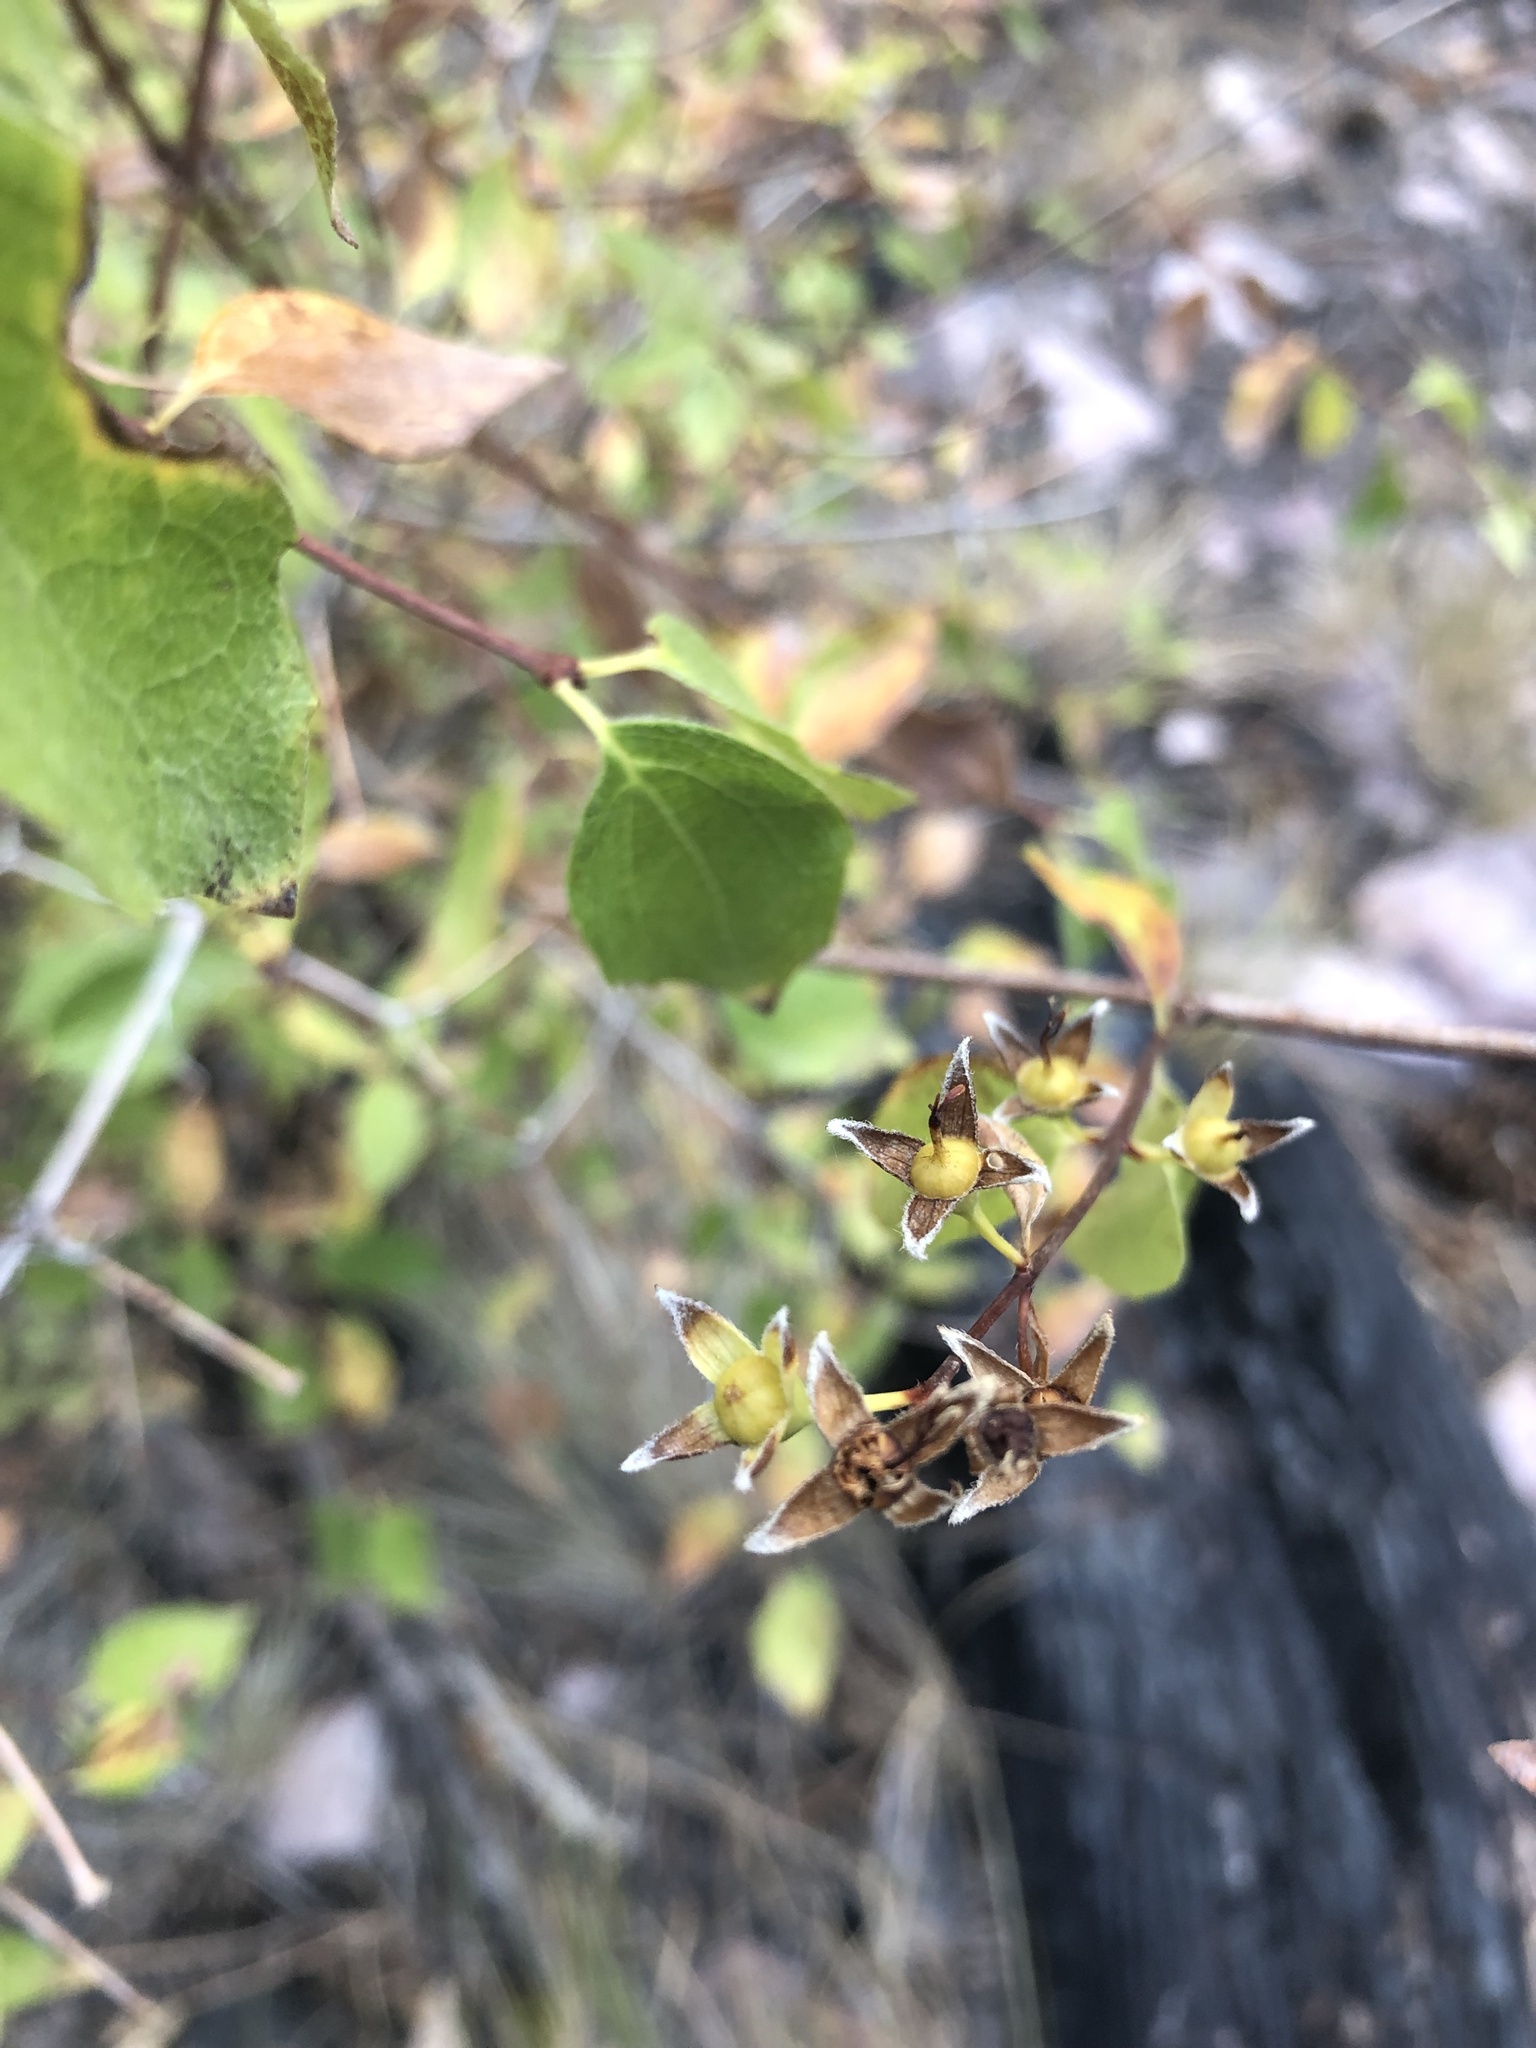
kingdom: Plantae
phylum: Tracheophyta
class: Magnoliopsida
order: Cornales
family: Hydrangeaceae
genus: Philadelphus
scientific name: Philadelphus lewisii
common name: Lewis's mock orange
